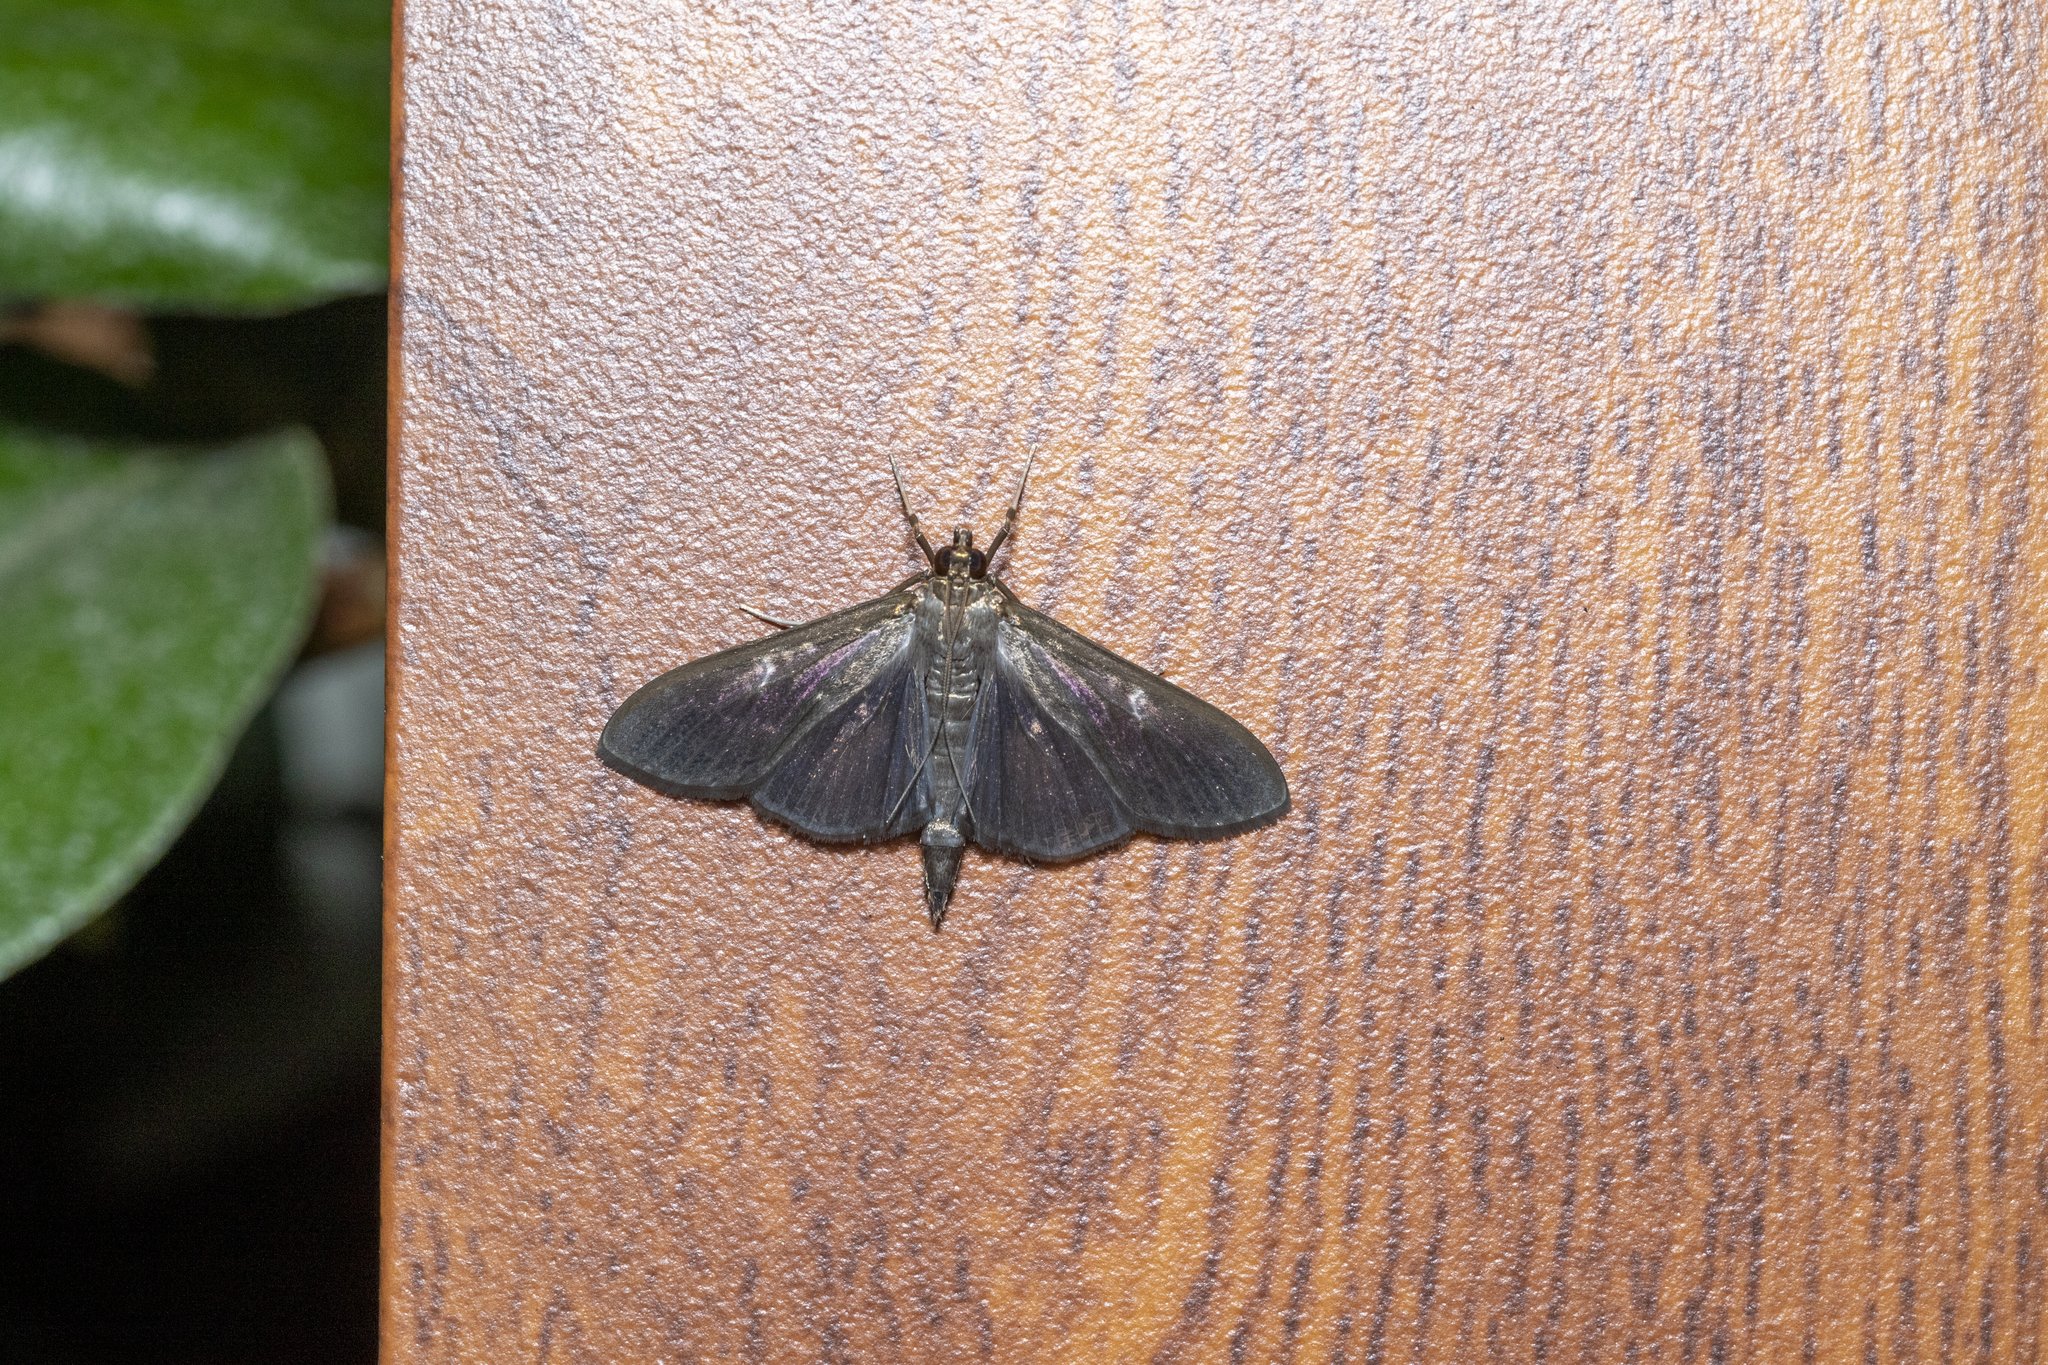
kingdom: Animalia
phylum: Arthropoda
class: Insecta
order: Lepidoptera
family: Crambidae
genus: Cydalima
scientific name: Cydalima perspectalis
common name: Box tree moth
